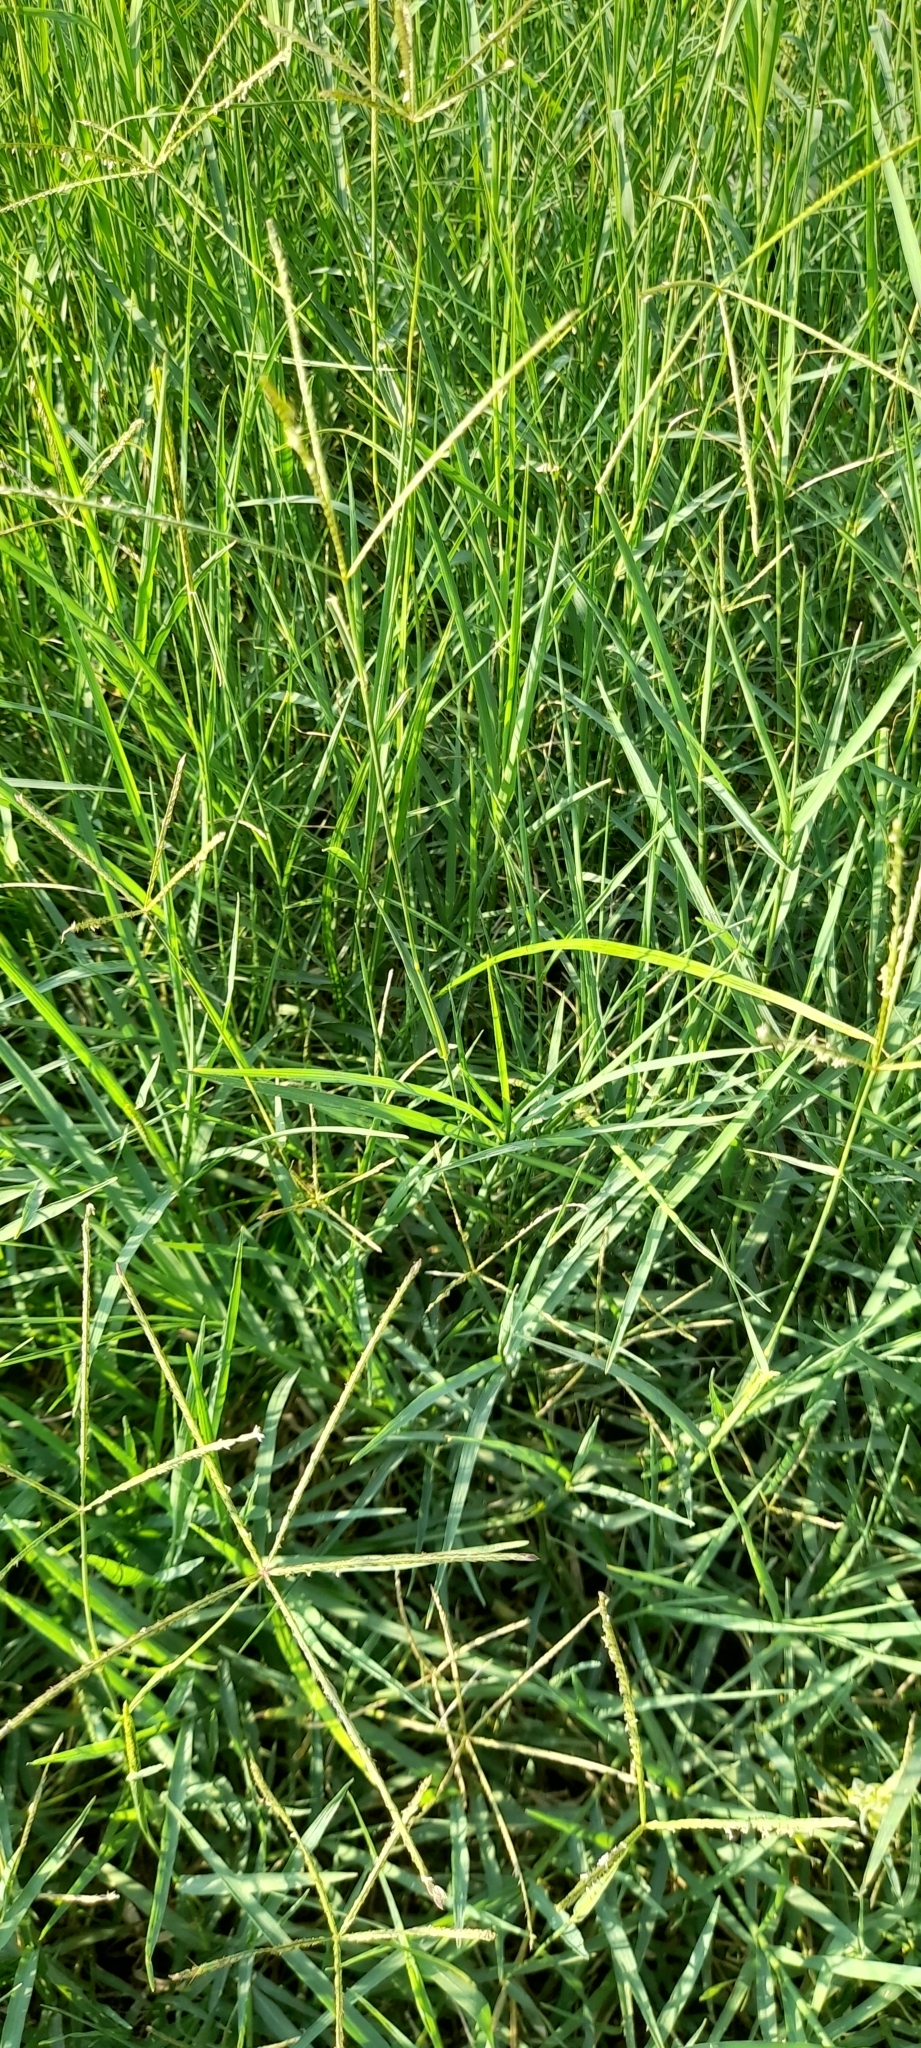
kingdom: Plantae
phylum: Tracheophyta
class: Liliopsida
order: Poales
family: Poaceae
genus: Cynodon
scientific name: Cynodon dactylon
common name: Bermuda grass
